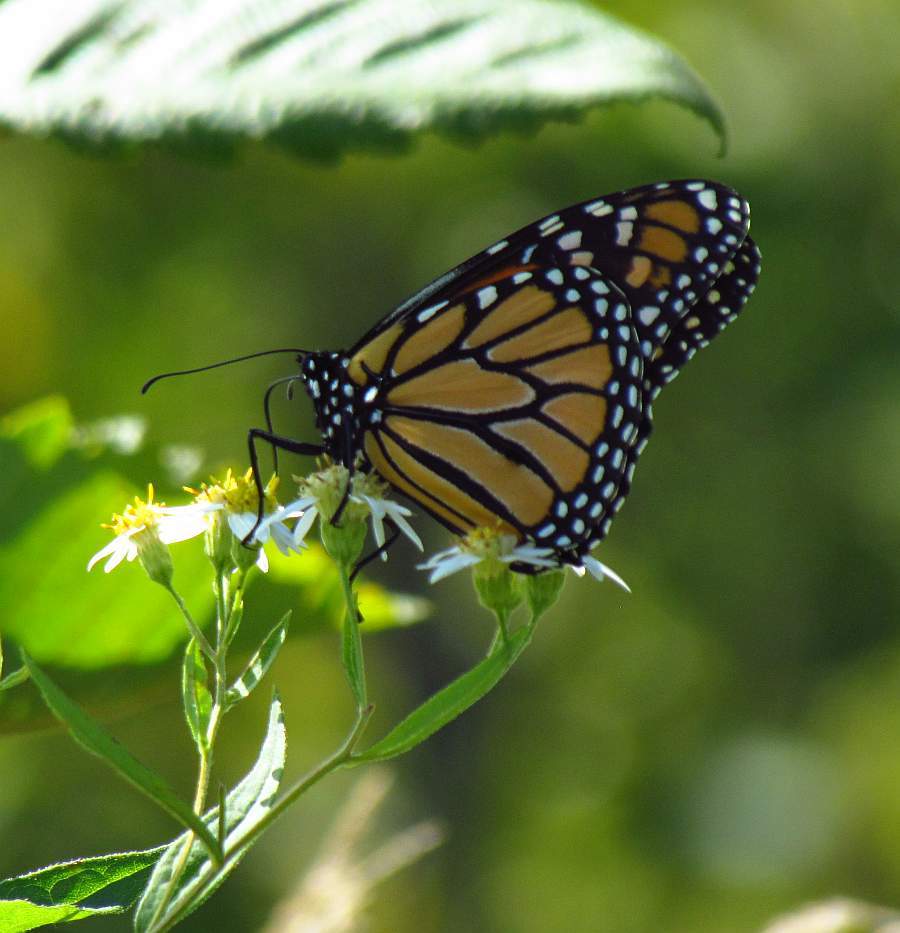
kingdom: Animalia
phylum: Arthropoda
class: Insecta
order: Lepidoptera
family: Nymphalidae
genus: Danaus
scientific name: Danaus plexippus
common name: Monarch
